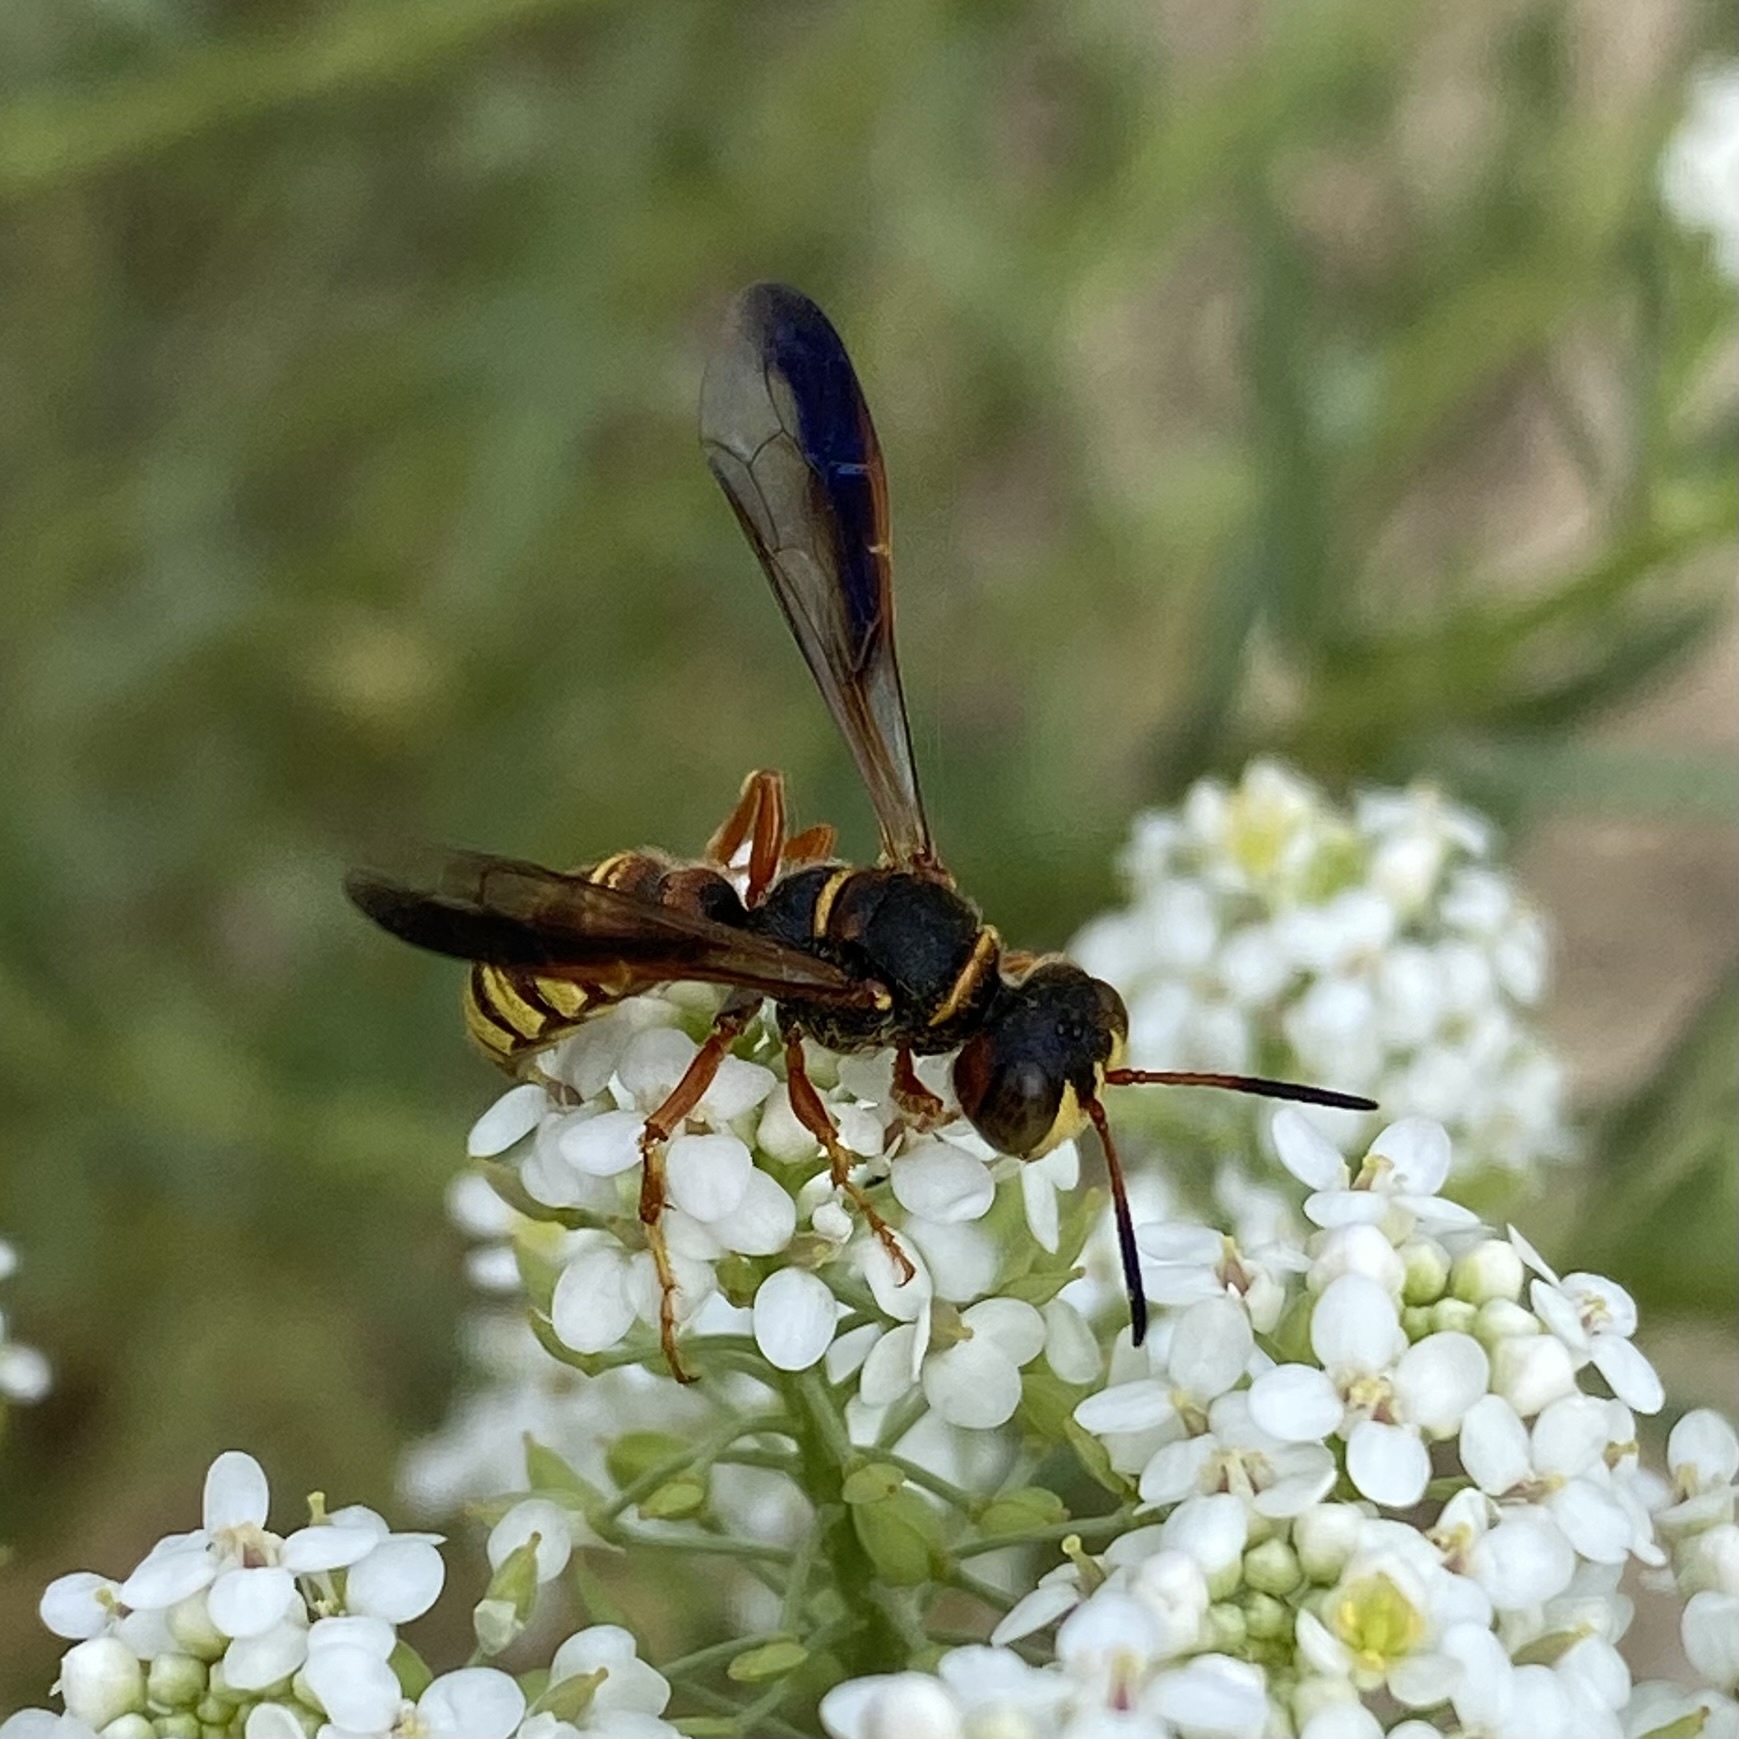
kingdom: Animalia
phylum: Arthropoda
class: Insecta
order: Hymenoptera
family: Crabronidae
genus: Eucerceris
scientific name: Eucerceris
